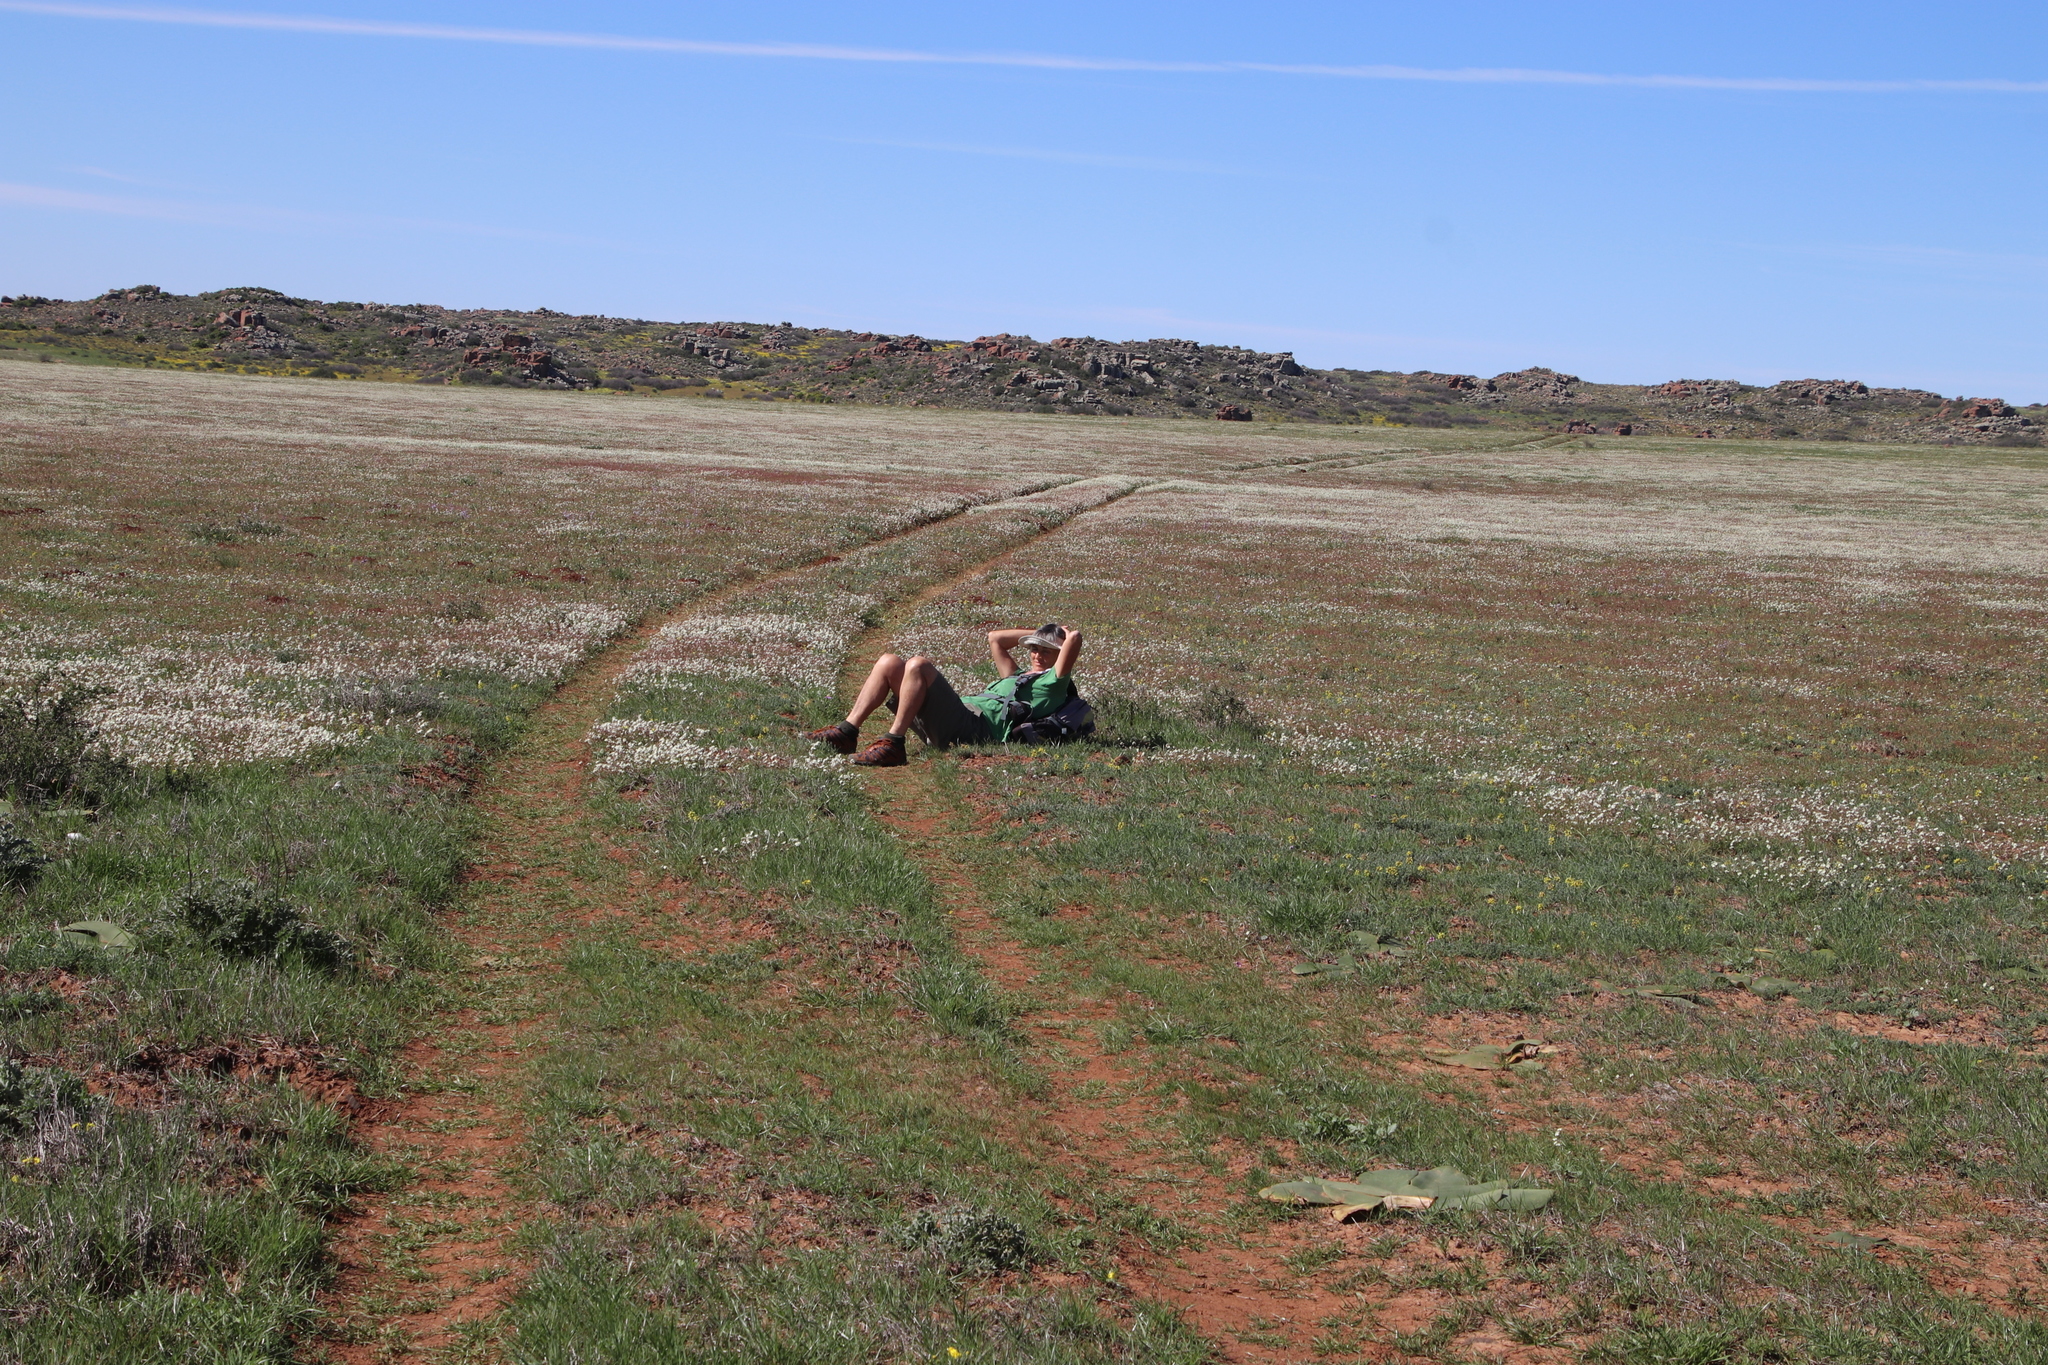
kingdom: Plantae
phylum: Tracheophyta
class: Magnoliopsida
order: Brassicales
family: Brassicaceae
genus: Heliophila
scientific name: Heliophila collina
